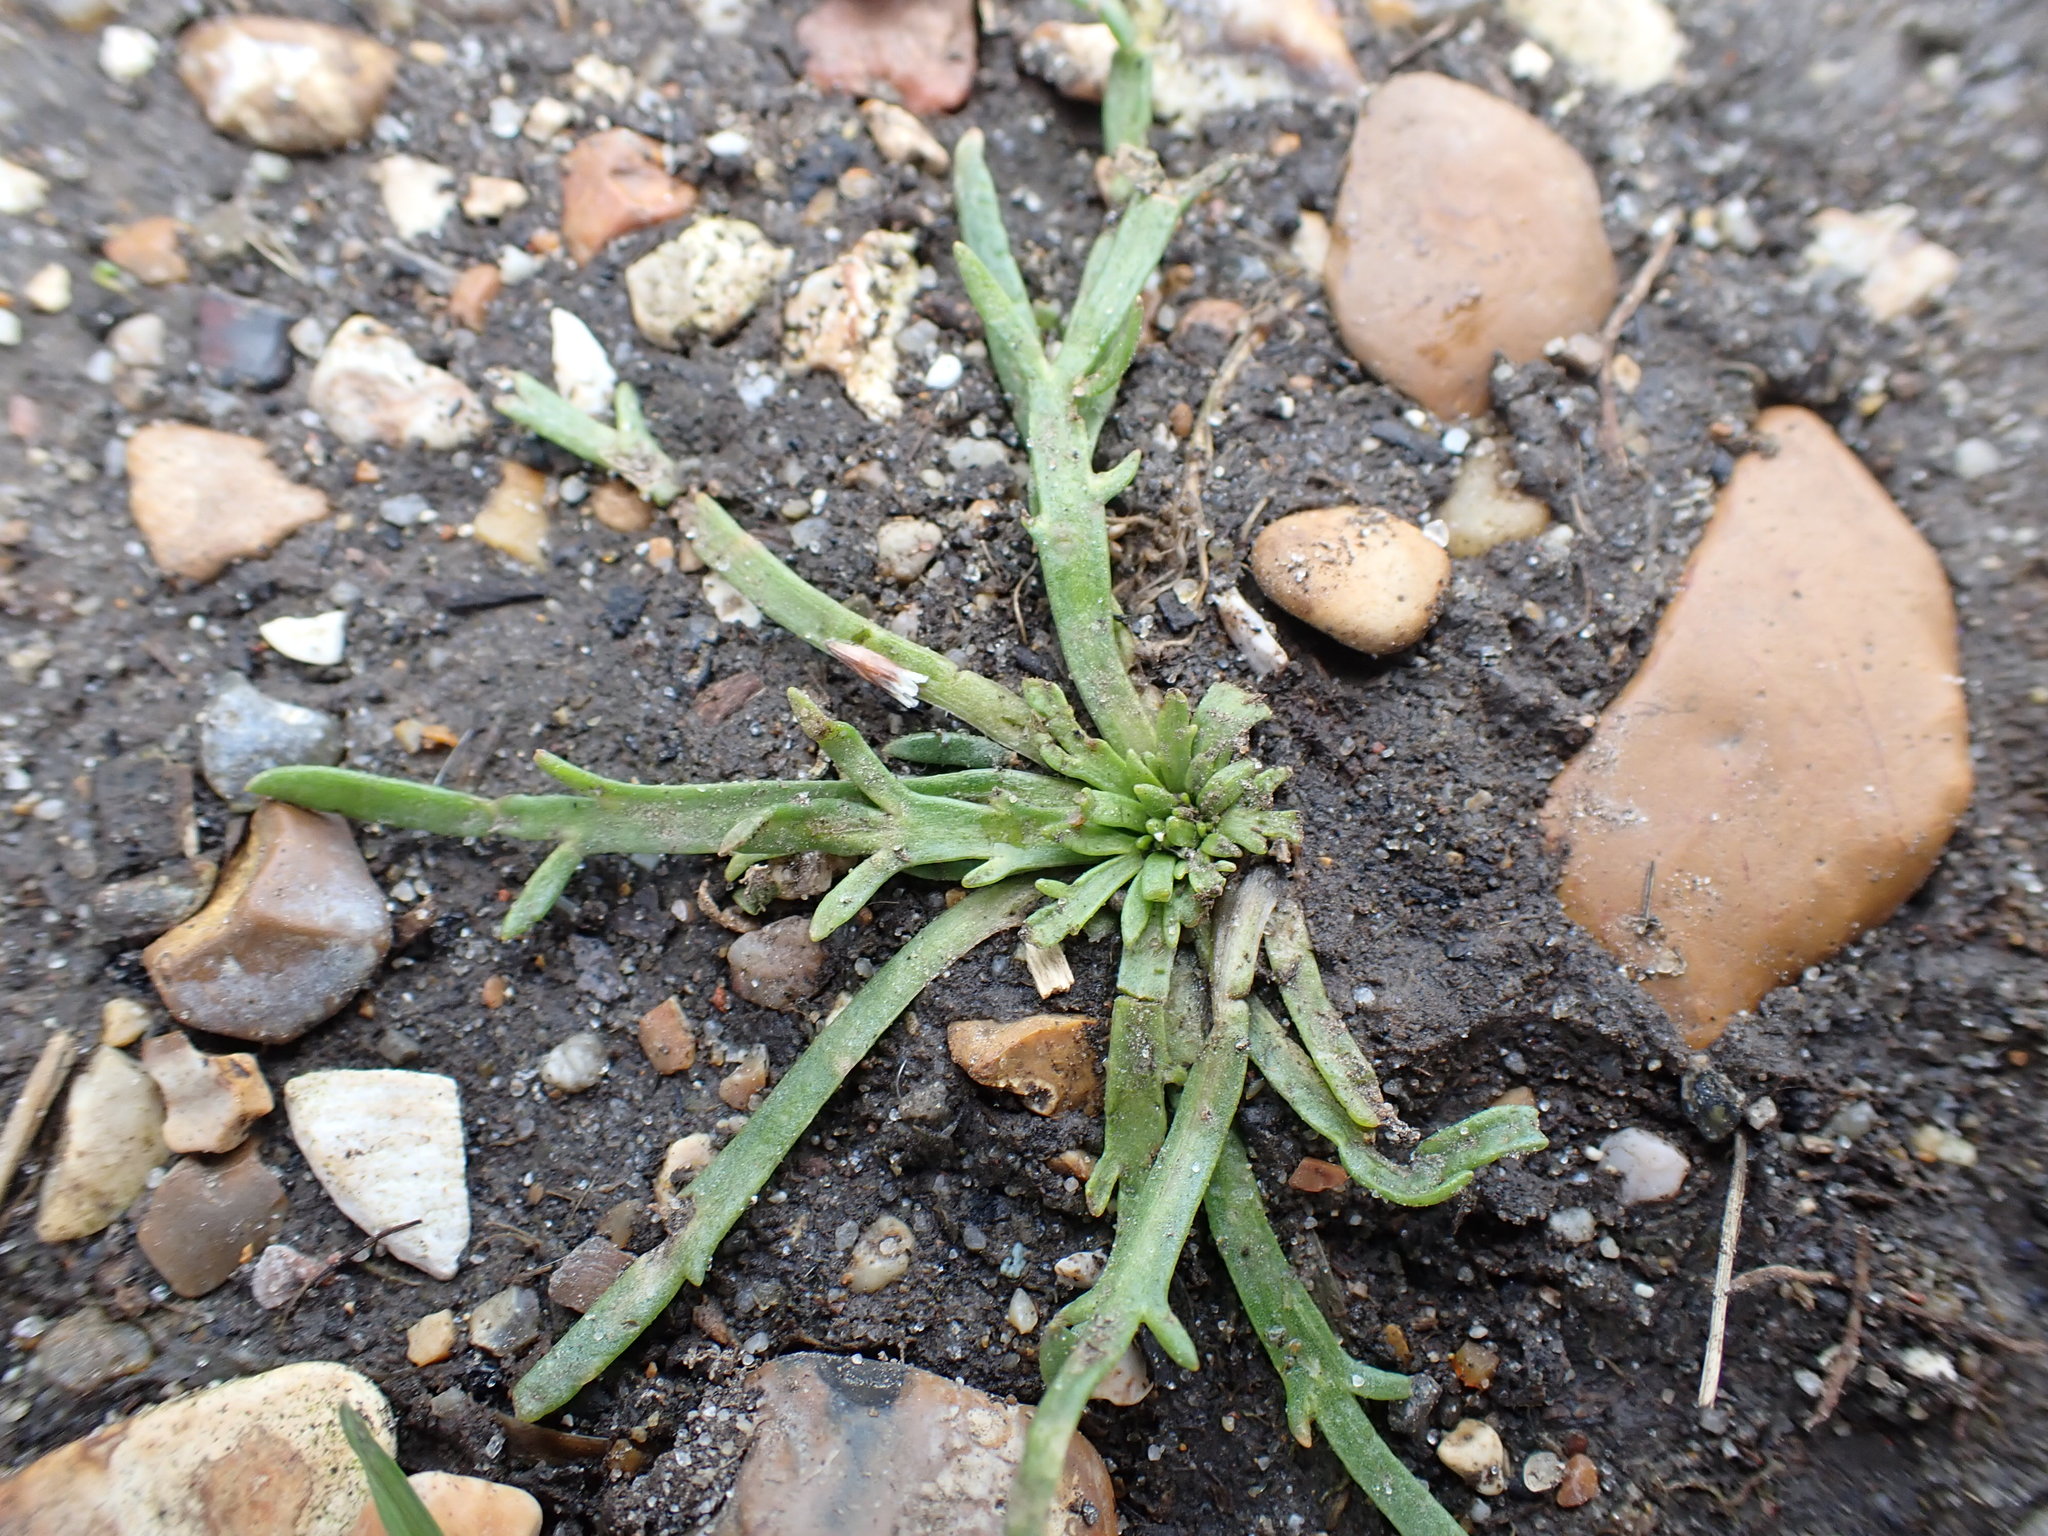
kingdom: Plantae
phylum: Tracheophyta
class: Magnoliopsida
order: Lamiales
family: Plantaginaceae
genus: Plantago
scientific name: Plantago coronopus
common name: Buck's-horn plantain
